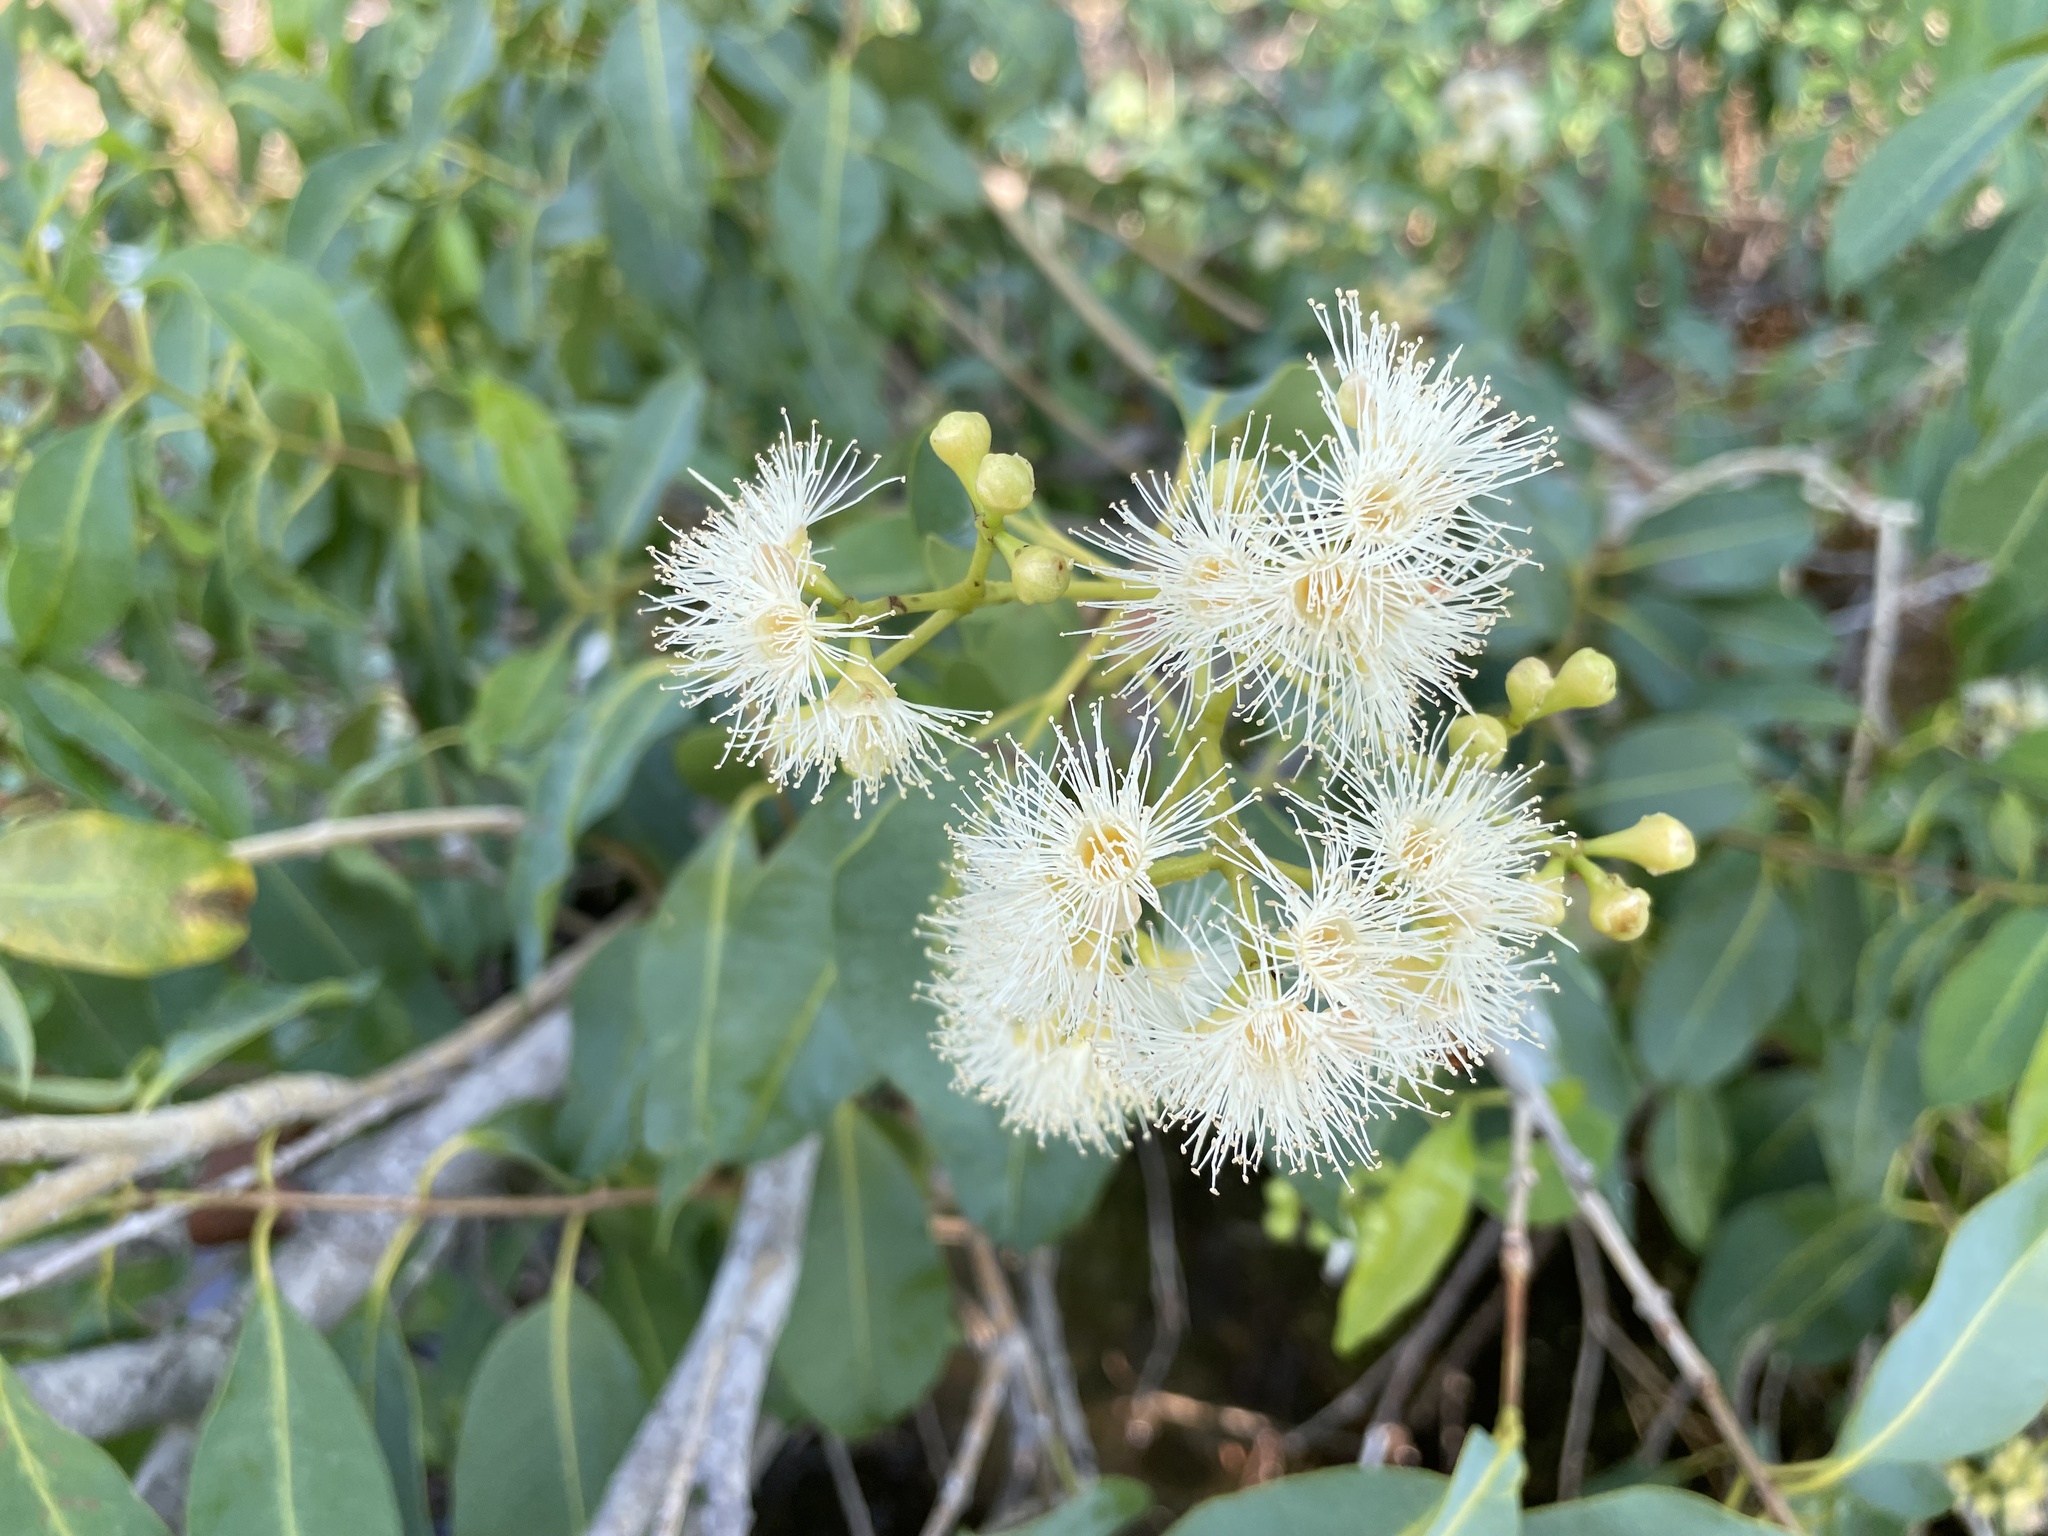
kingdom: Plantae
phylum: Tracheophyta
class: Magnoliopsida
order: Myrtales
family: Myrtaceae
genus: Syzygium
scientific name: Syzygium guineense
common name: Water-pear
